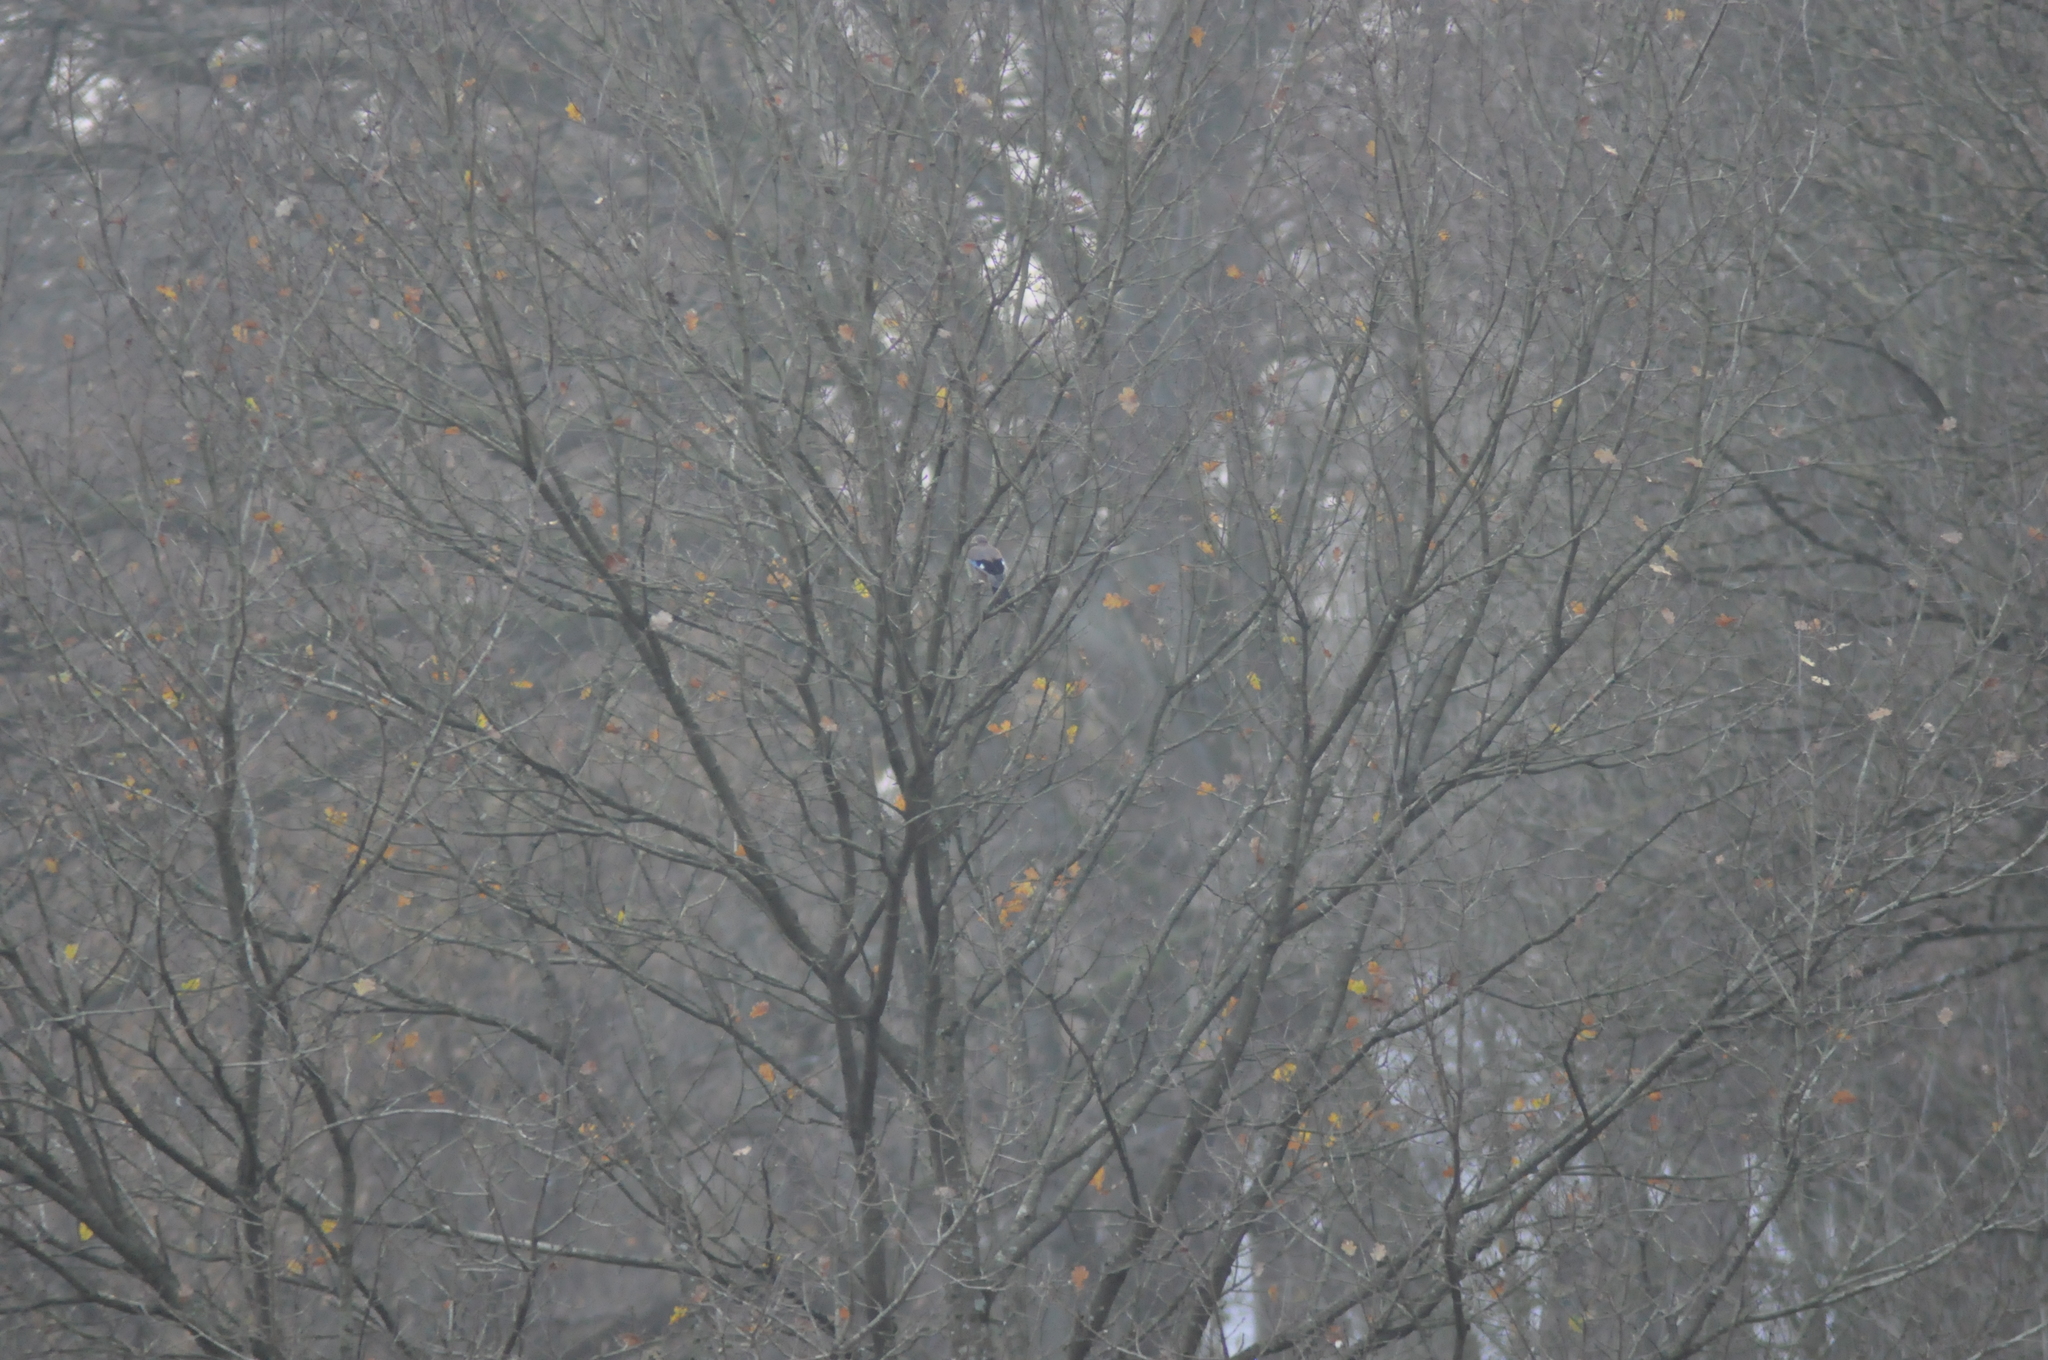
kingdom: Animalia
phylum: Chordata
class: Aves
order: Passeriformes
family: Corvidae
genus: Garrulus
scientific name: Garrulus glandarius
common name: Eurasian jay
